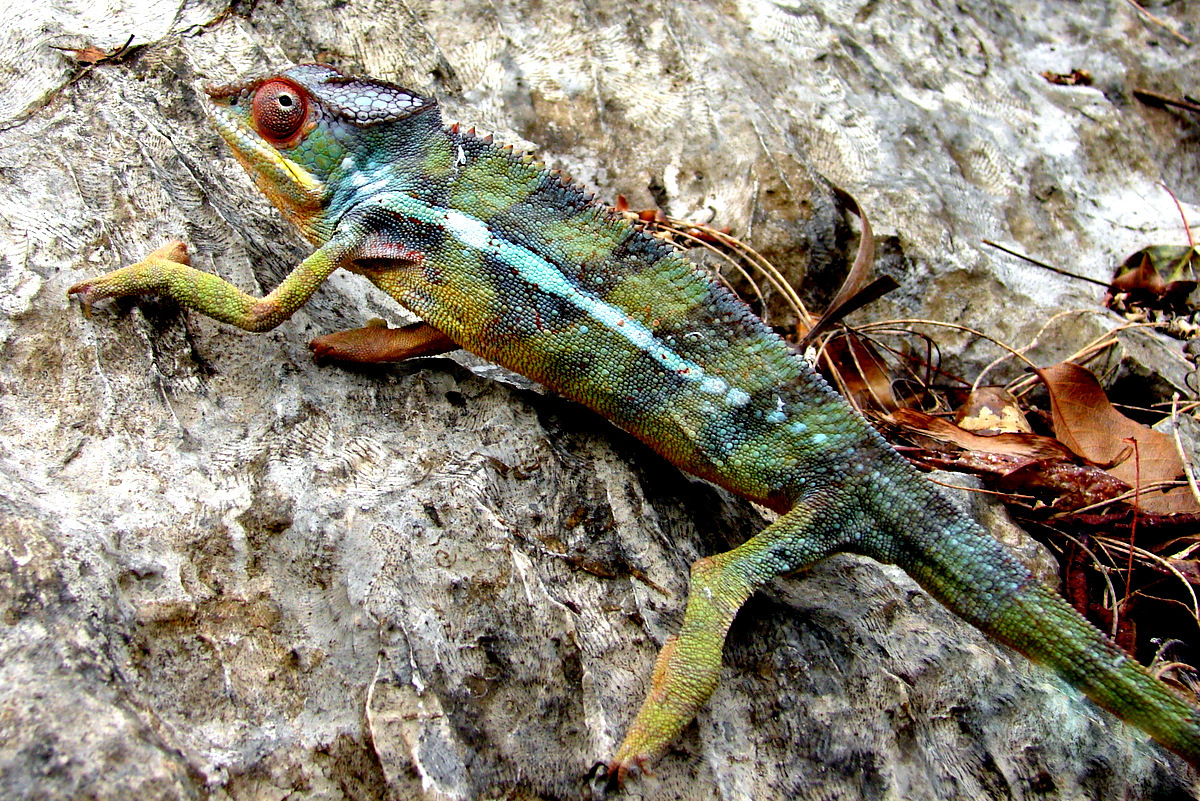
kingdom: Animalia
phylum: Chordata
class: Squamata
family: Chamaeleonidae
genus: Furcifer
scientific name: Furcifer pardalis
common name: Panther chameleon
